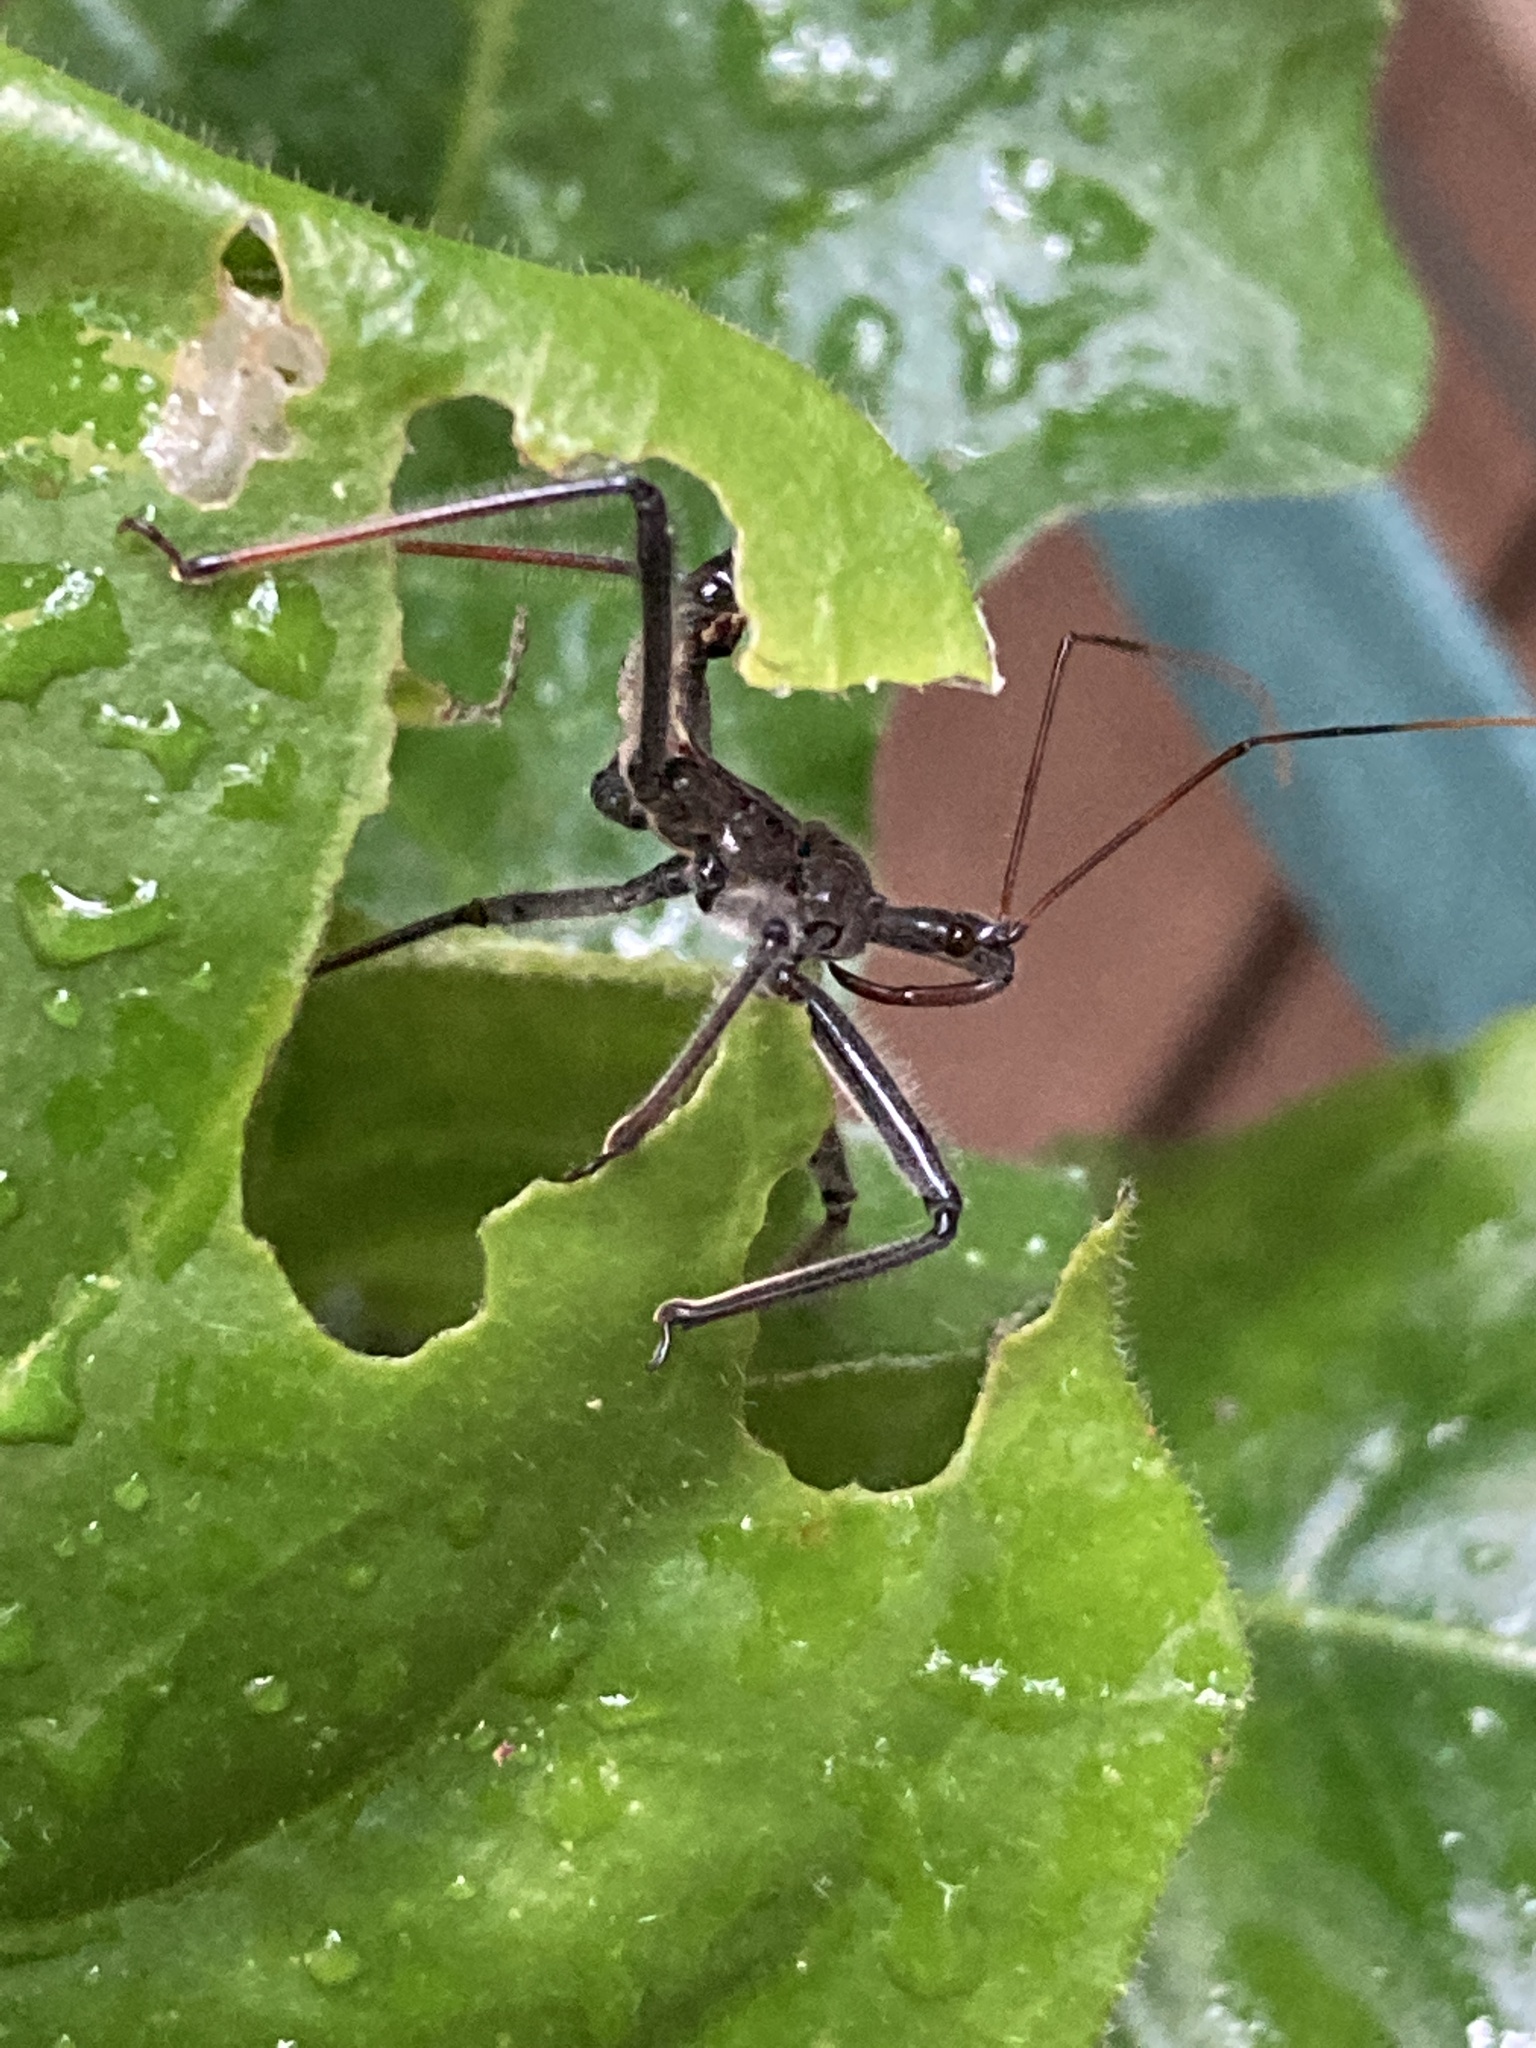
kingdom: Animalia
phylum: Arthropoda
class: Insecta
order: Hemiptera
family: Reduviidae
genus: Arilus
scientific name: Arilus cristatus
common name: North american wheel bug
